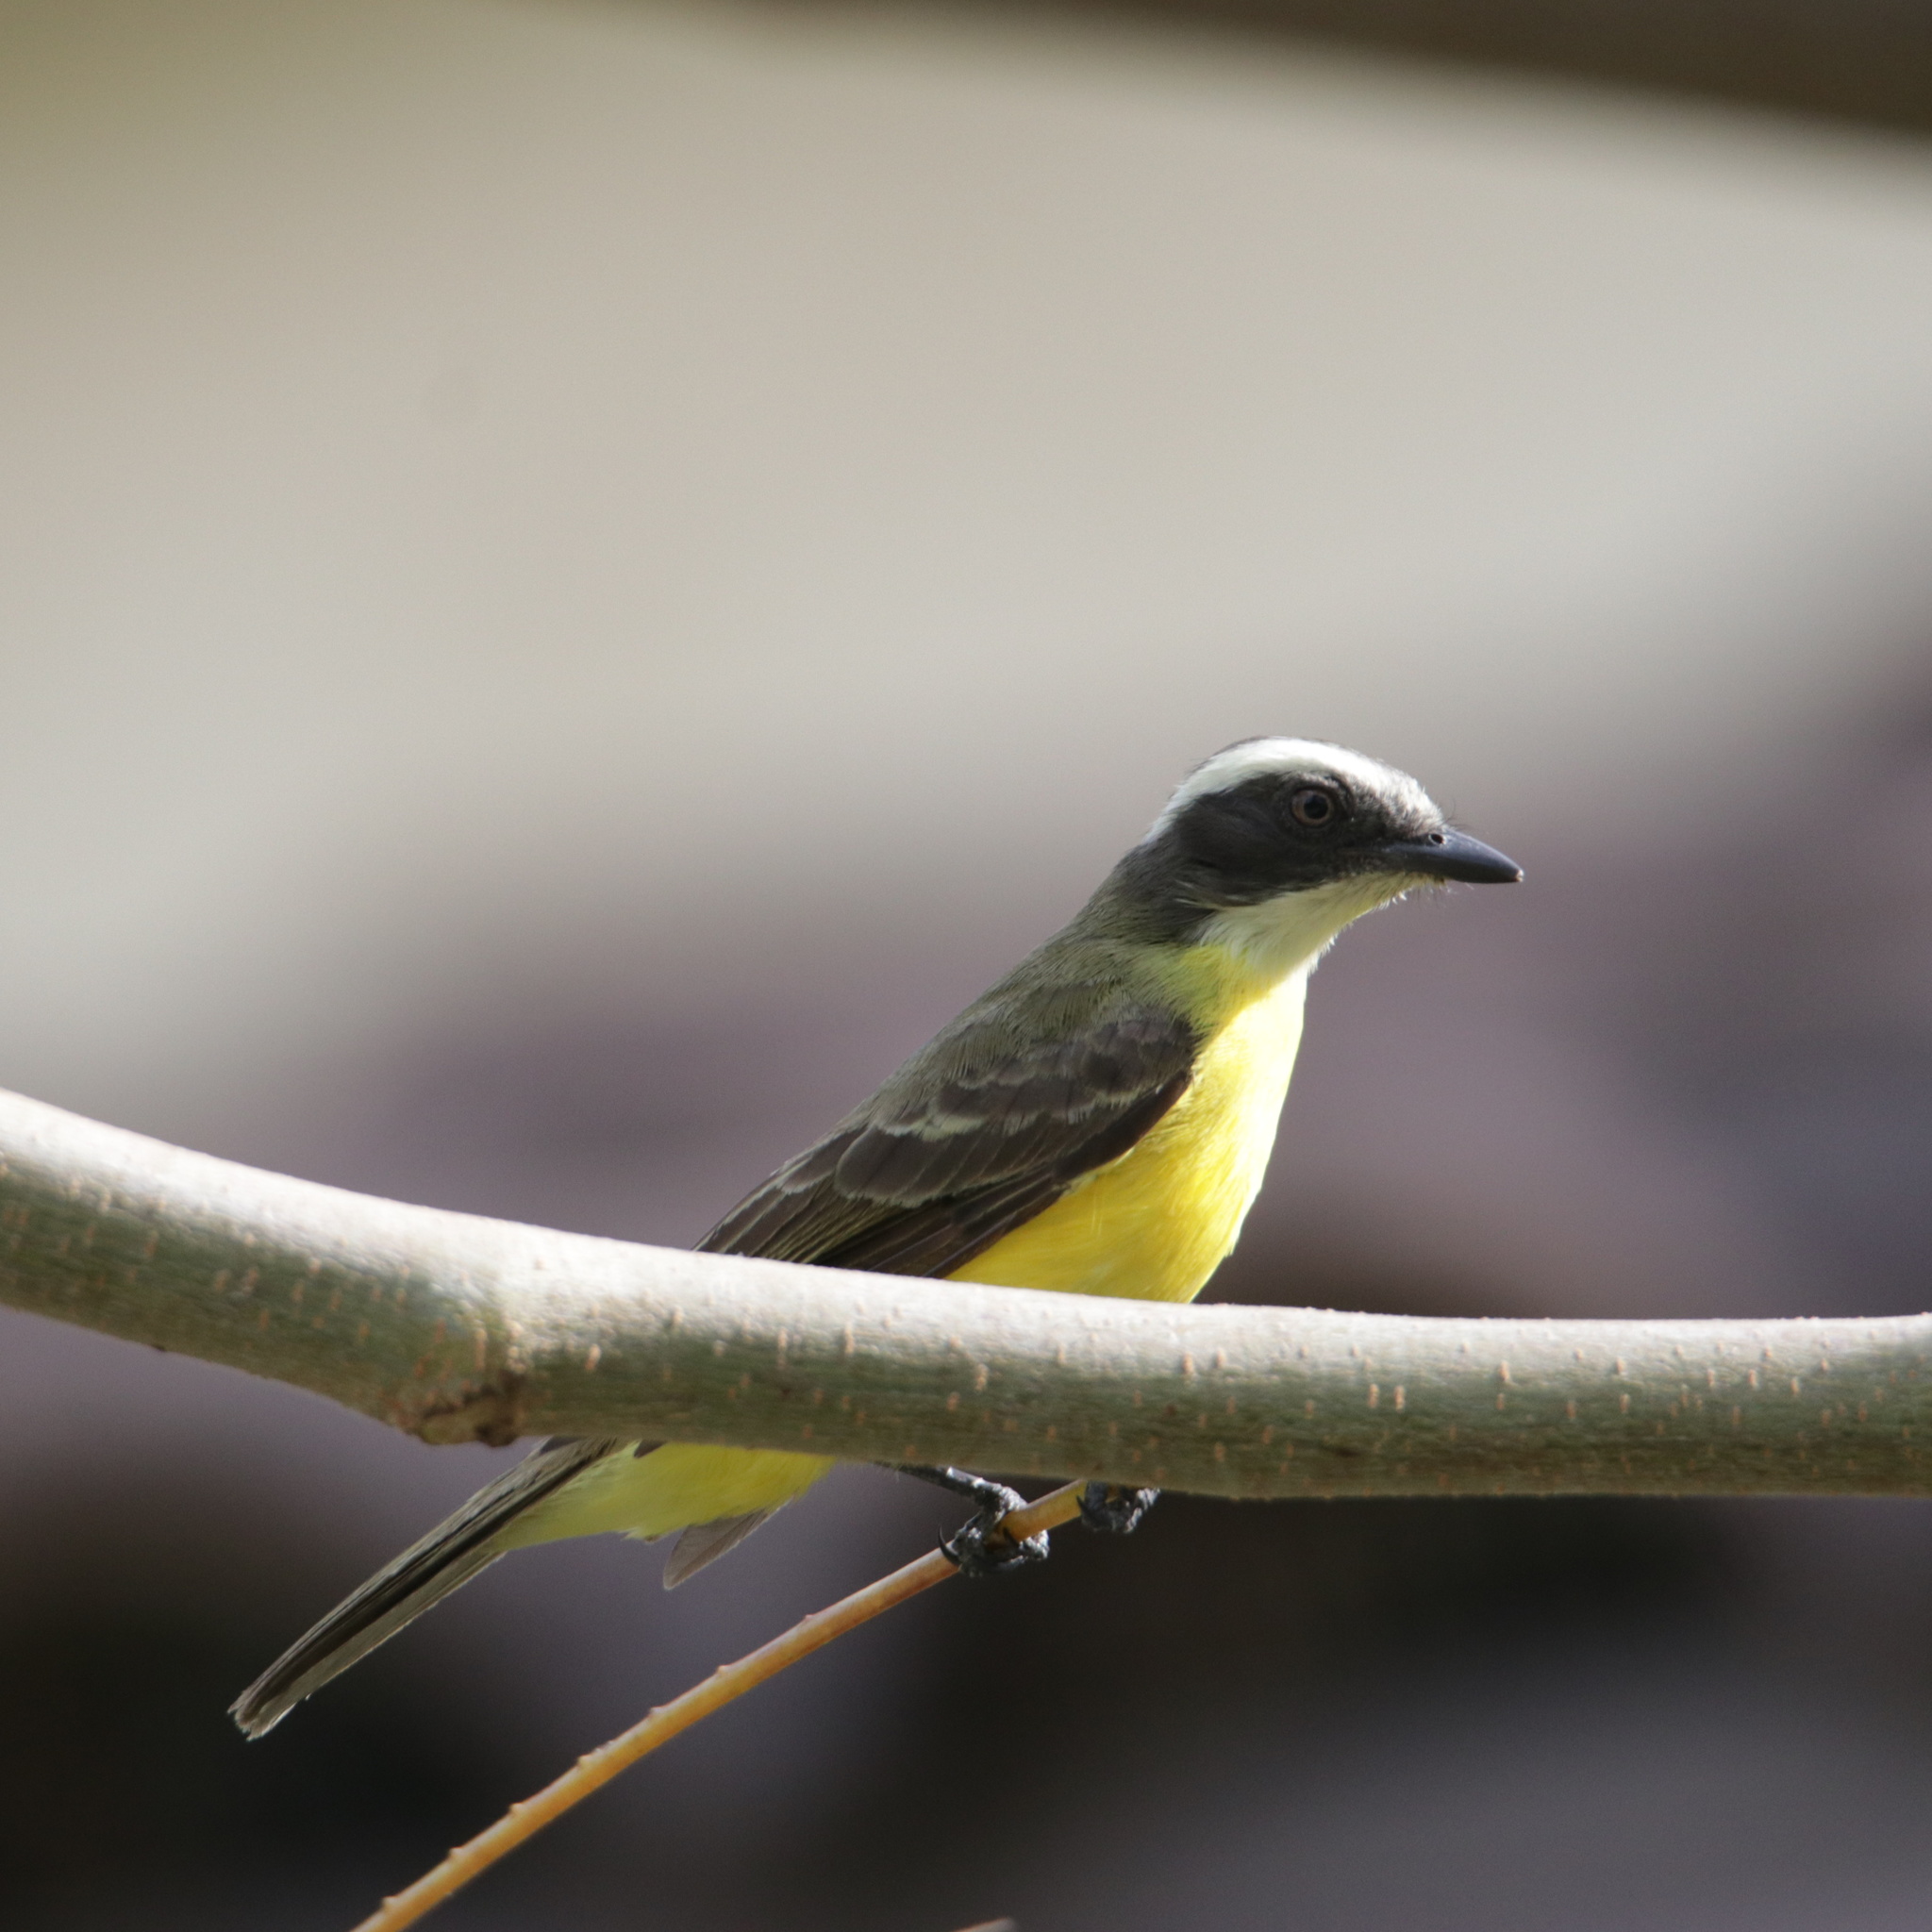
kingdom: Animalia
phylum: Chordata
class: Aves
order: Passeriformes
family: Tyrannidae
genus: Myiozetetes
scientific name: Myiozetetes similis
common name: Social flycatcher
